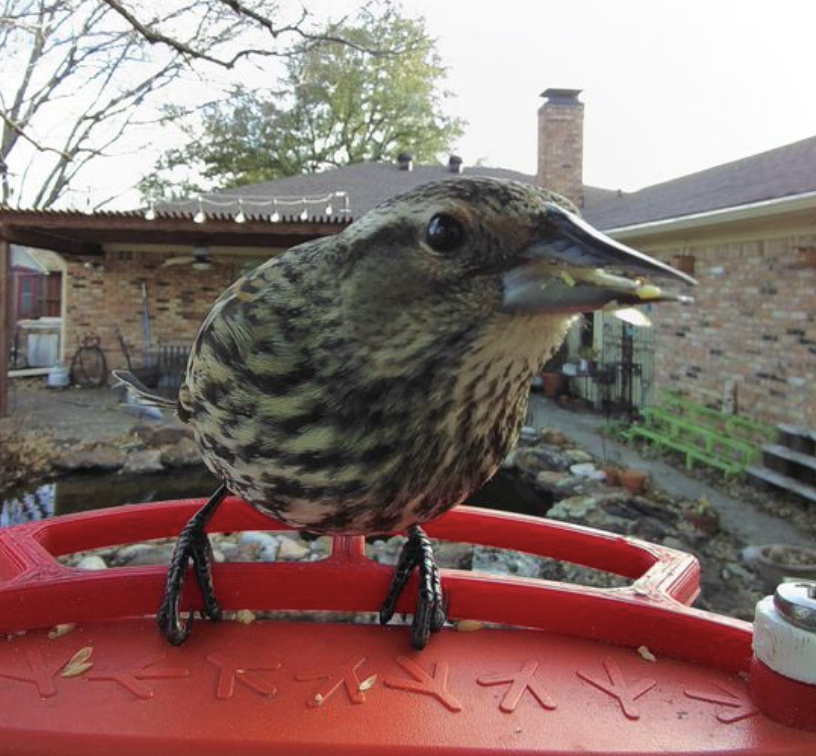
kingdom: Animalia
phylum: Chordata
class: Aves
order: Passeriformes
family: Icteridae
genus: Agelaius
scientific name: Agelaius phoeniceus
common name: Red-winged blackbird
